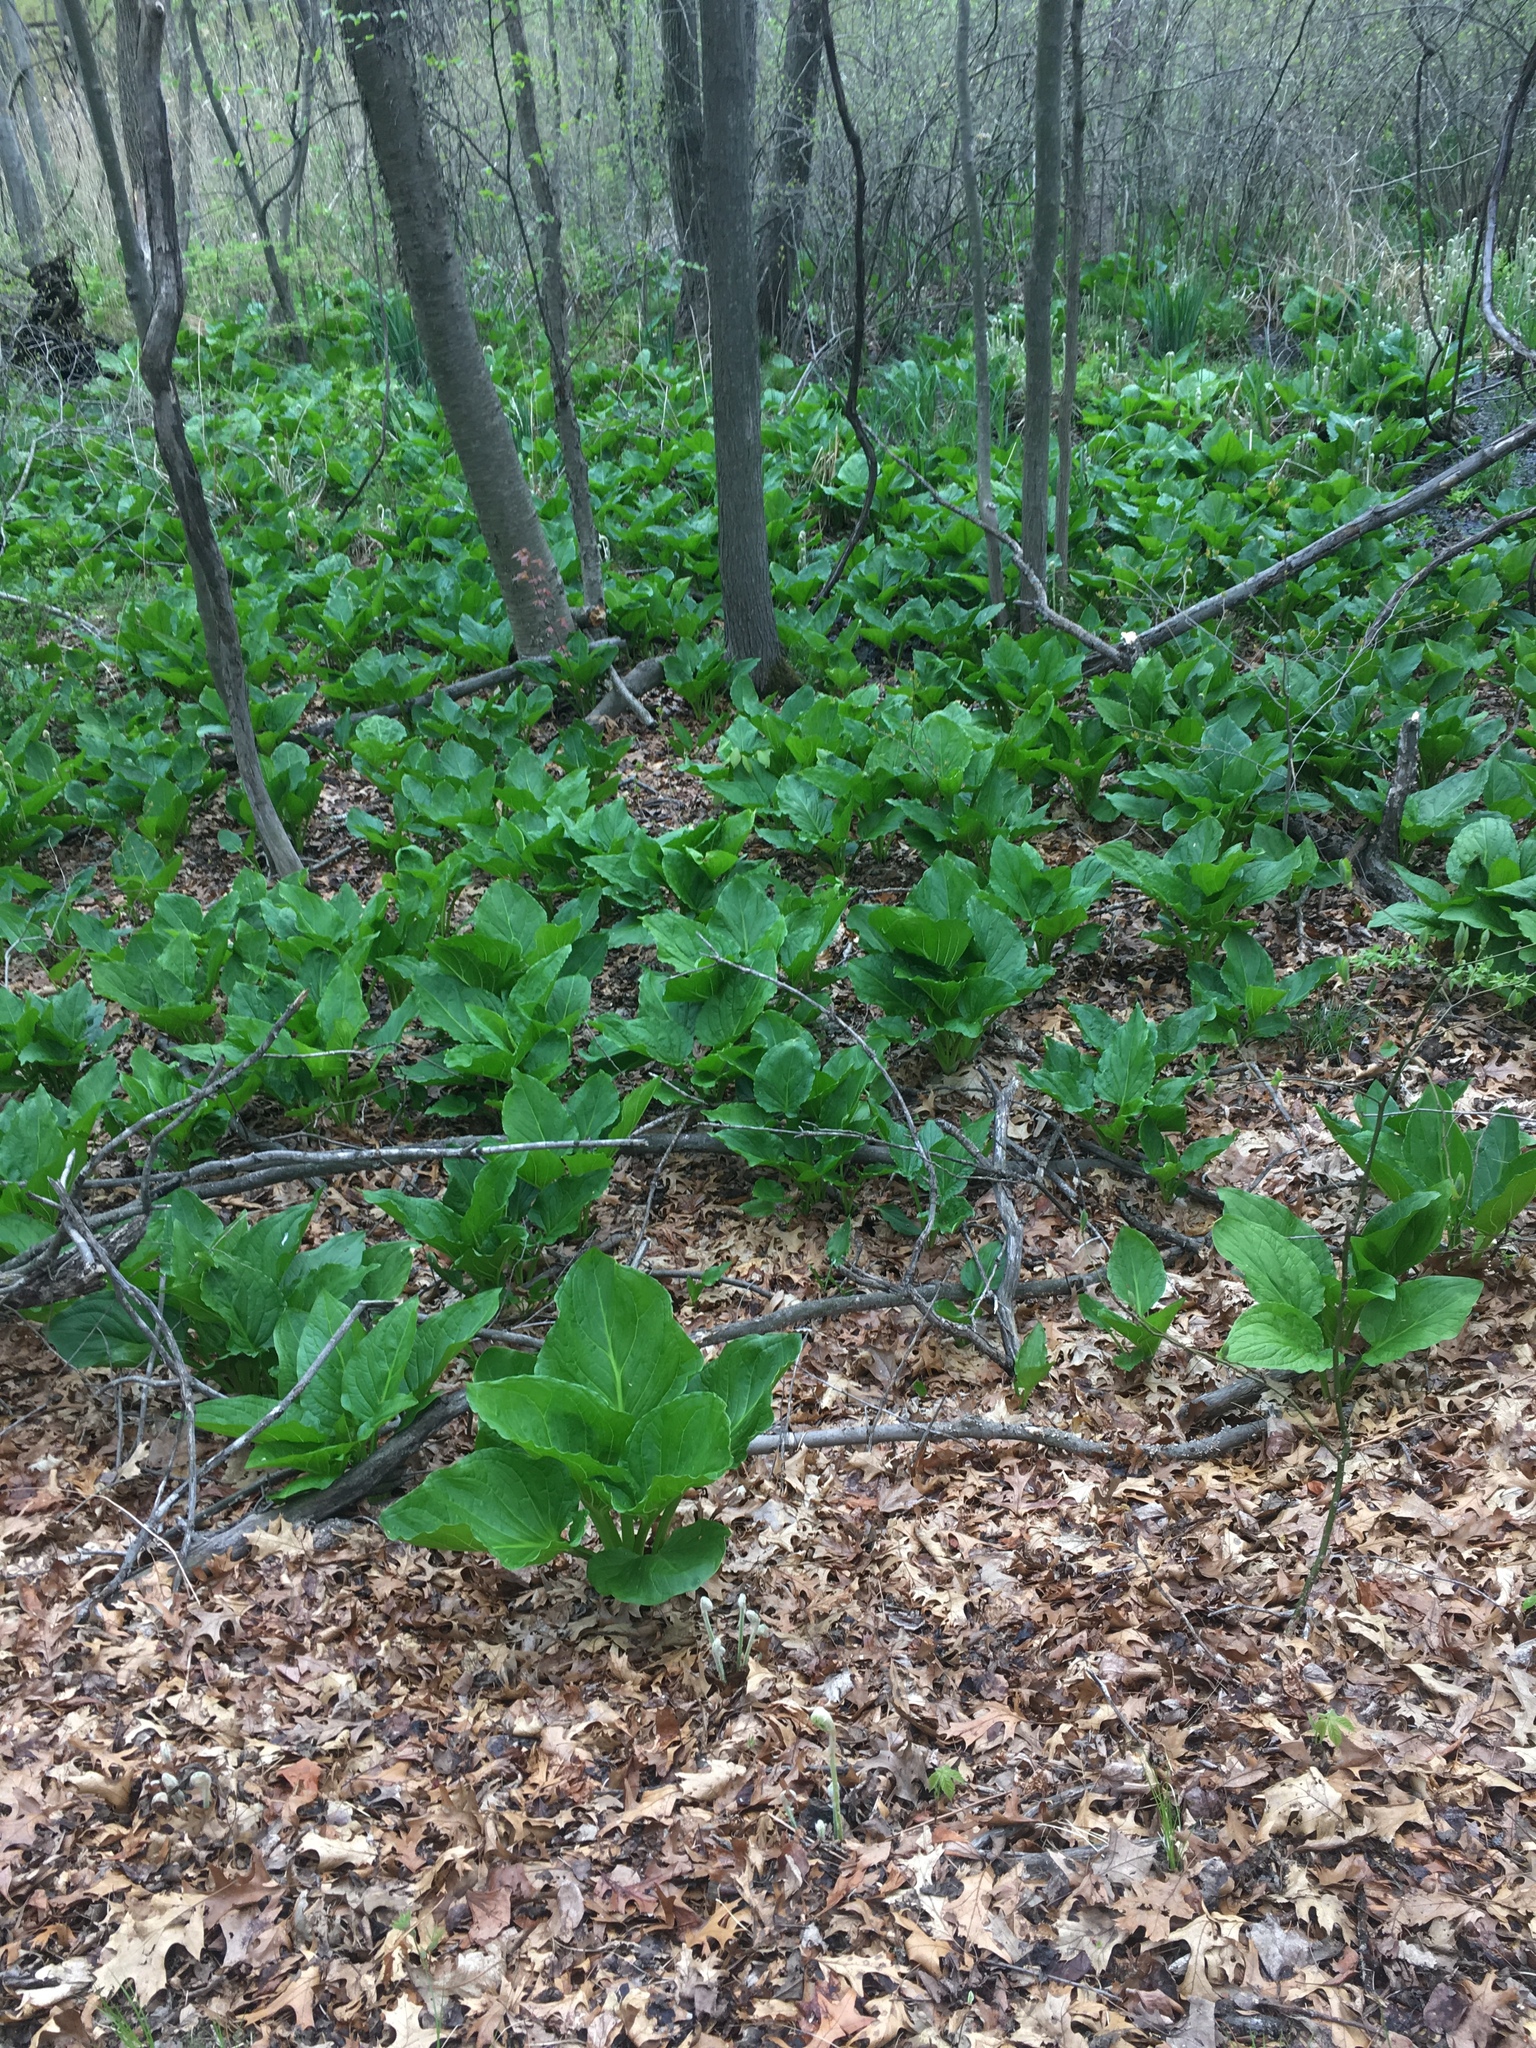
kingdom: Plantae
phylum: Tracheophyta
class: Liliopsida
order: Alismatales
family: Araceae
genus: Symplocarpus
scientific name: Symplocarpus foetidus
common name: Eastern skunk cabbage
